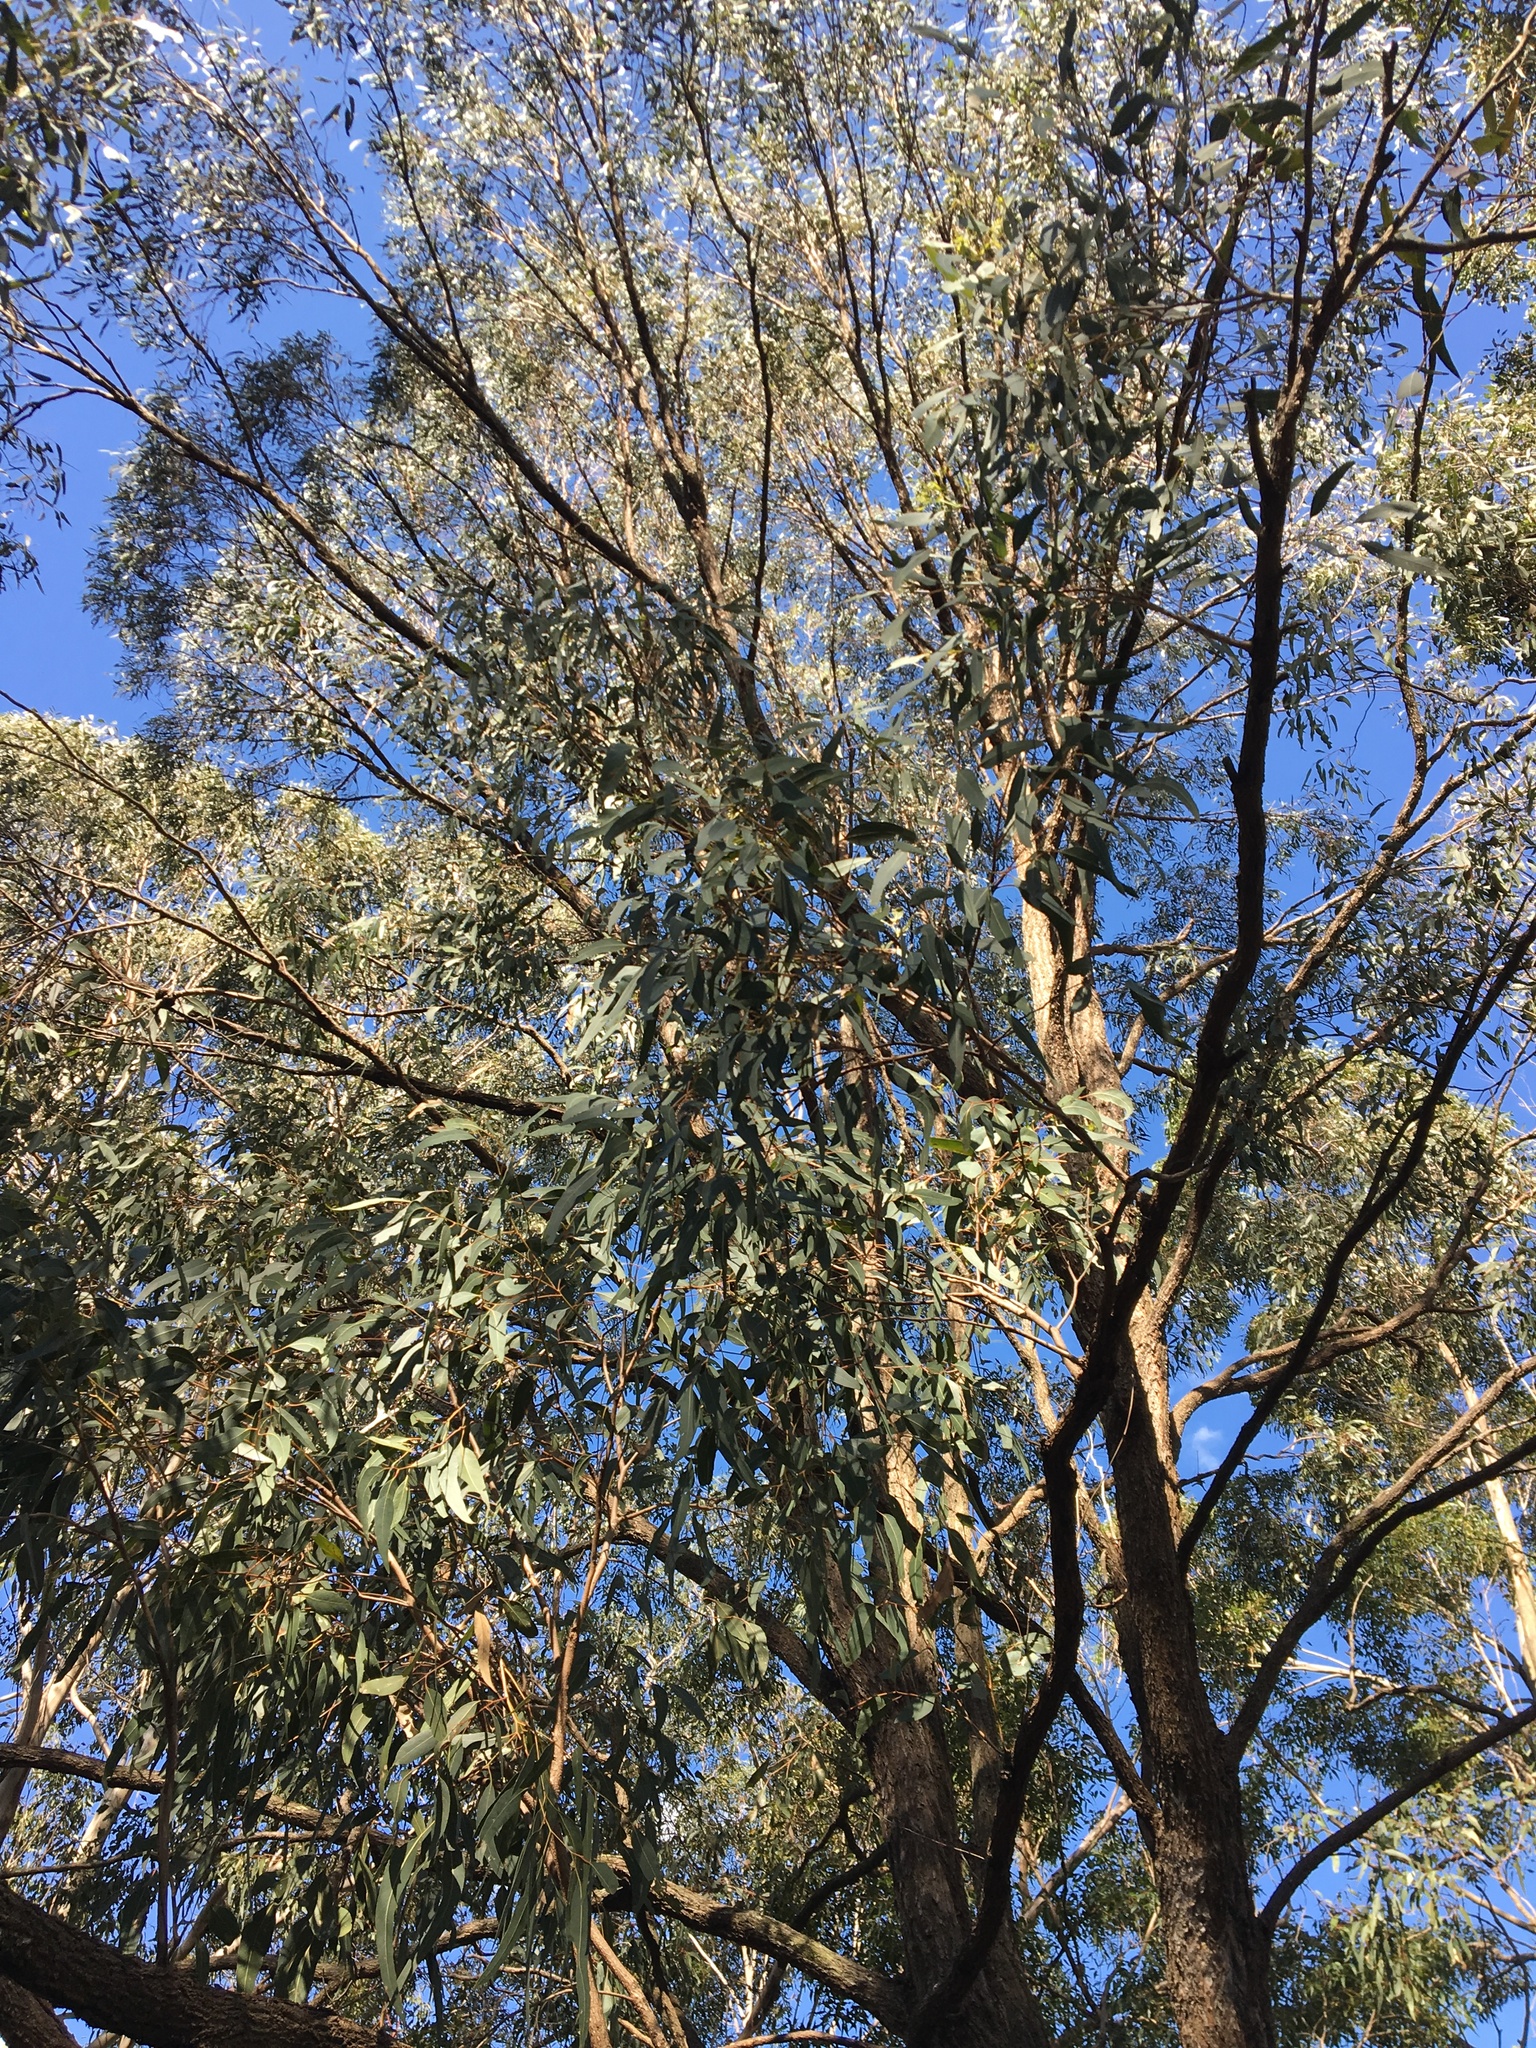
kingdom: Plantae
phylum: Tracheophyta
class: Magnoliopsida
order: Myrtales
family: Myrtaceae
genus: Eucalyptus
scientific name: Eucalyptus fibrosa
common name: Red ironbark
